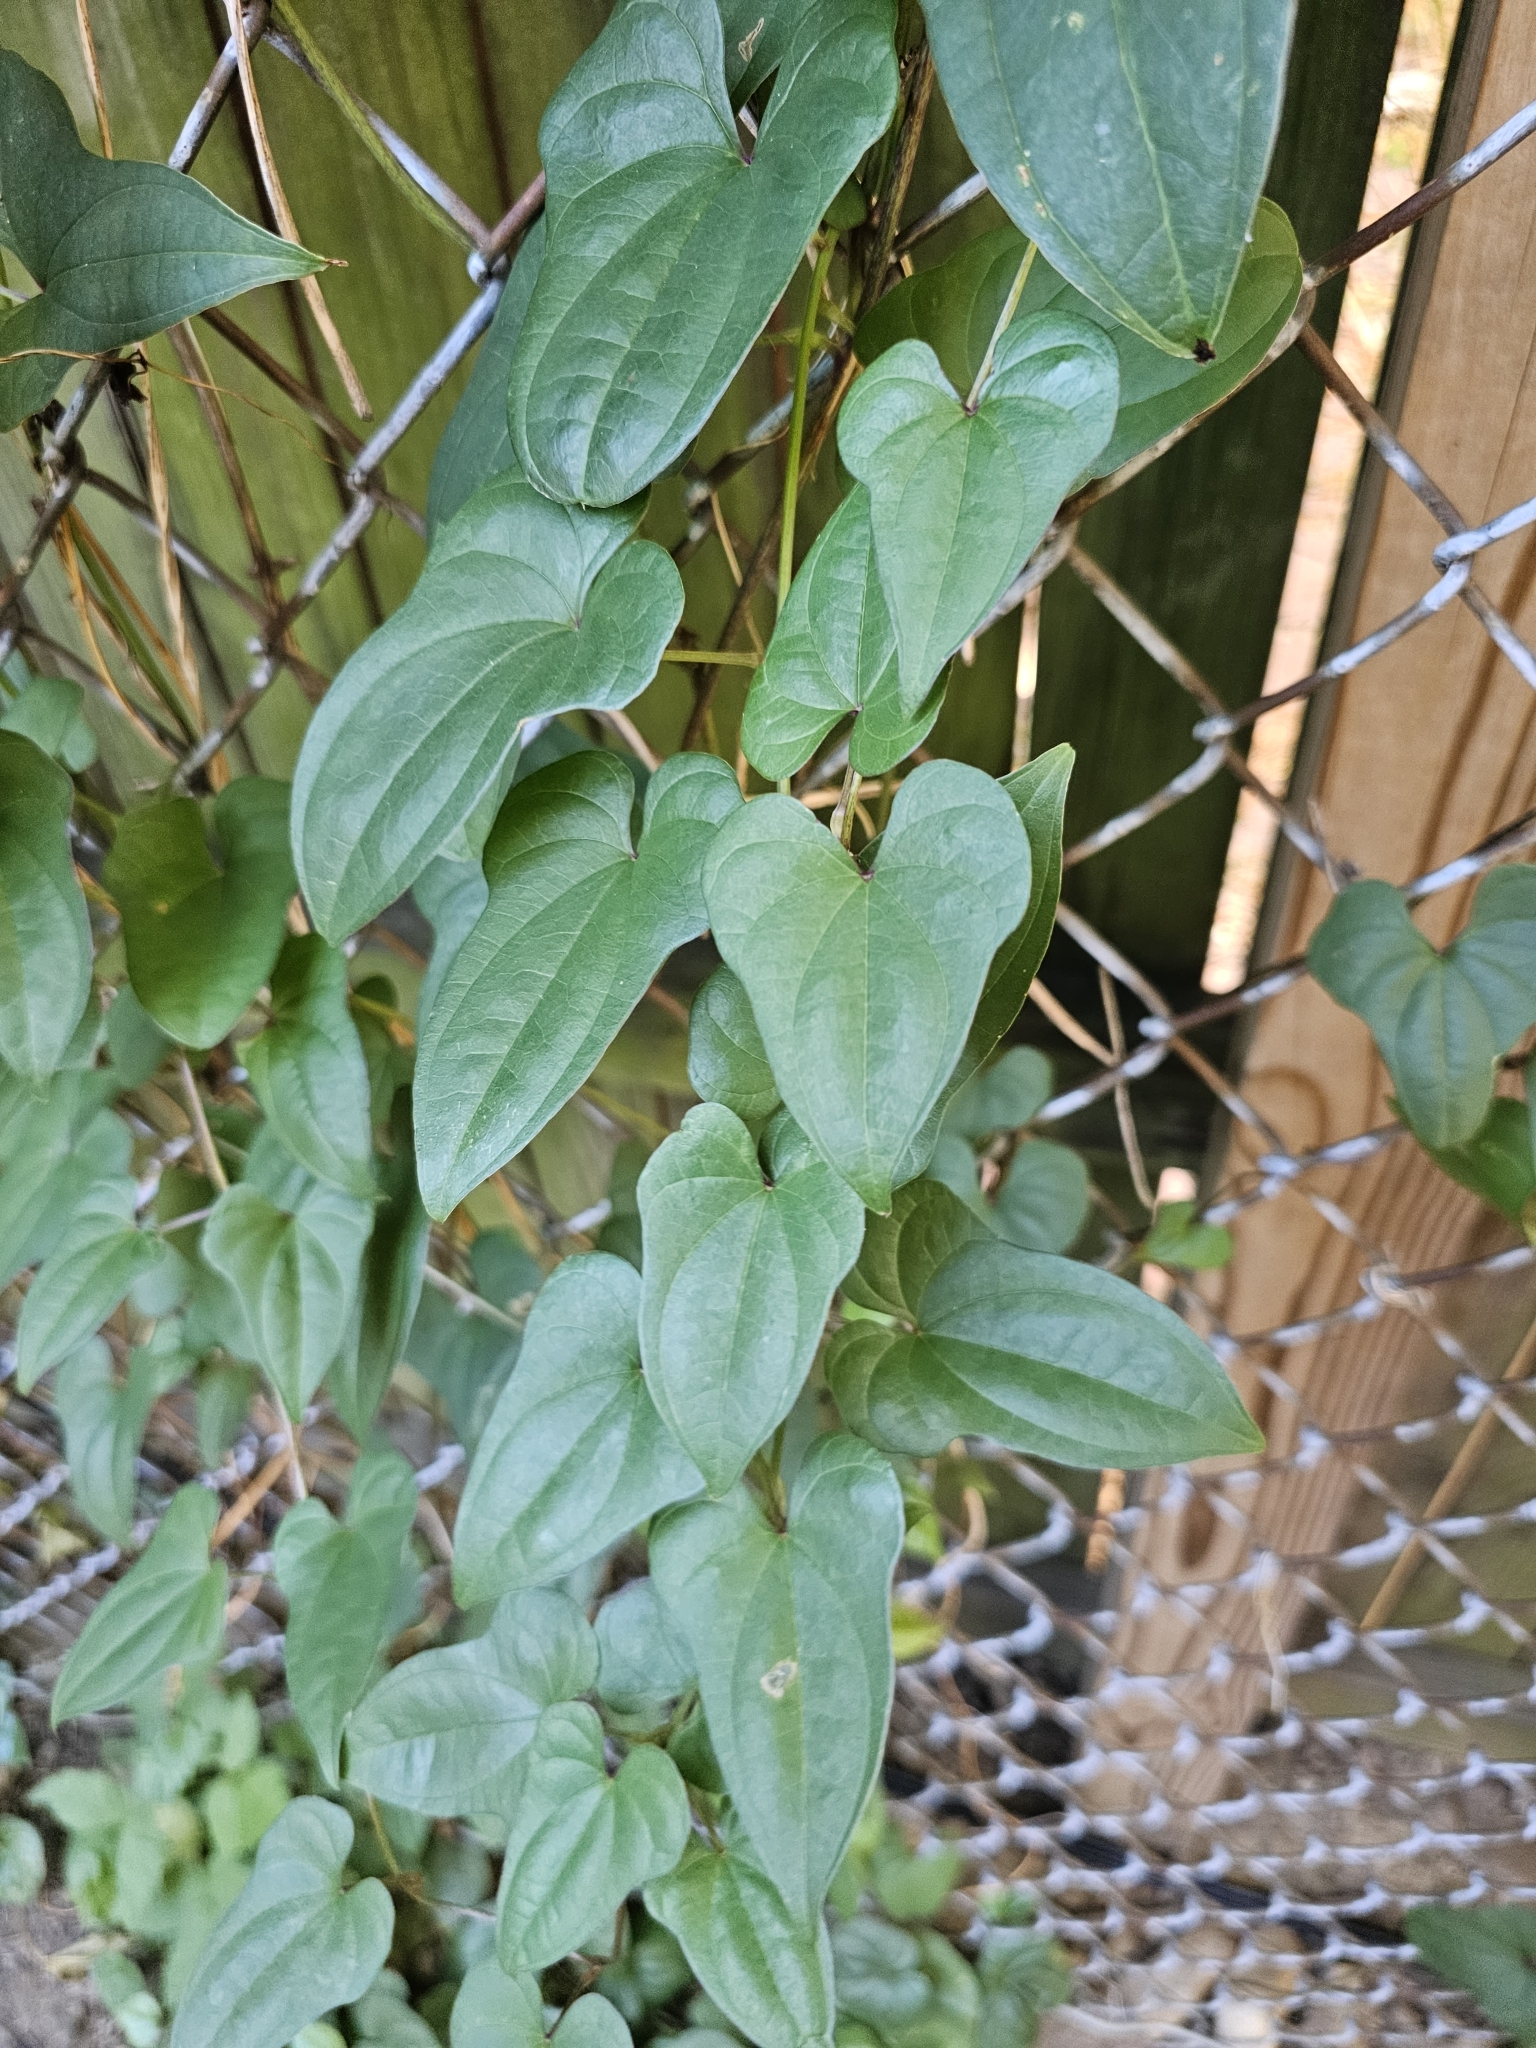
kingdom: Plantae
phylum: Tracheophyta
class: Liliopsida
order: Dioscoreales
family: Dioscoreaceae
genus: Dioscorea
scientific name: Dioscorea polystachya
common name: Chinese yam
